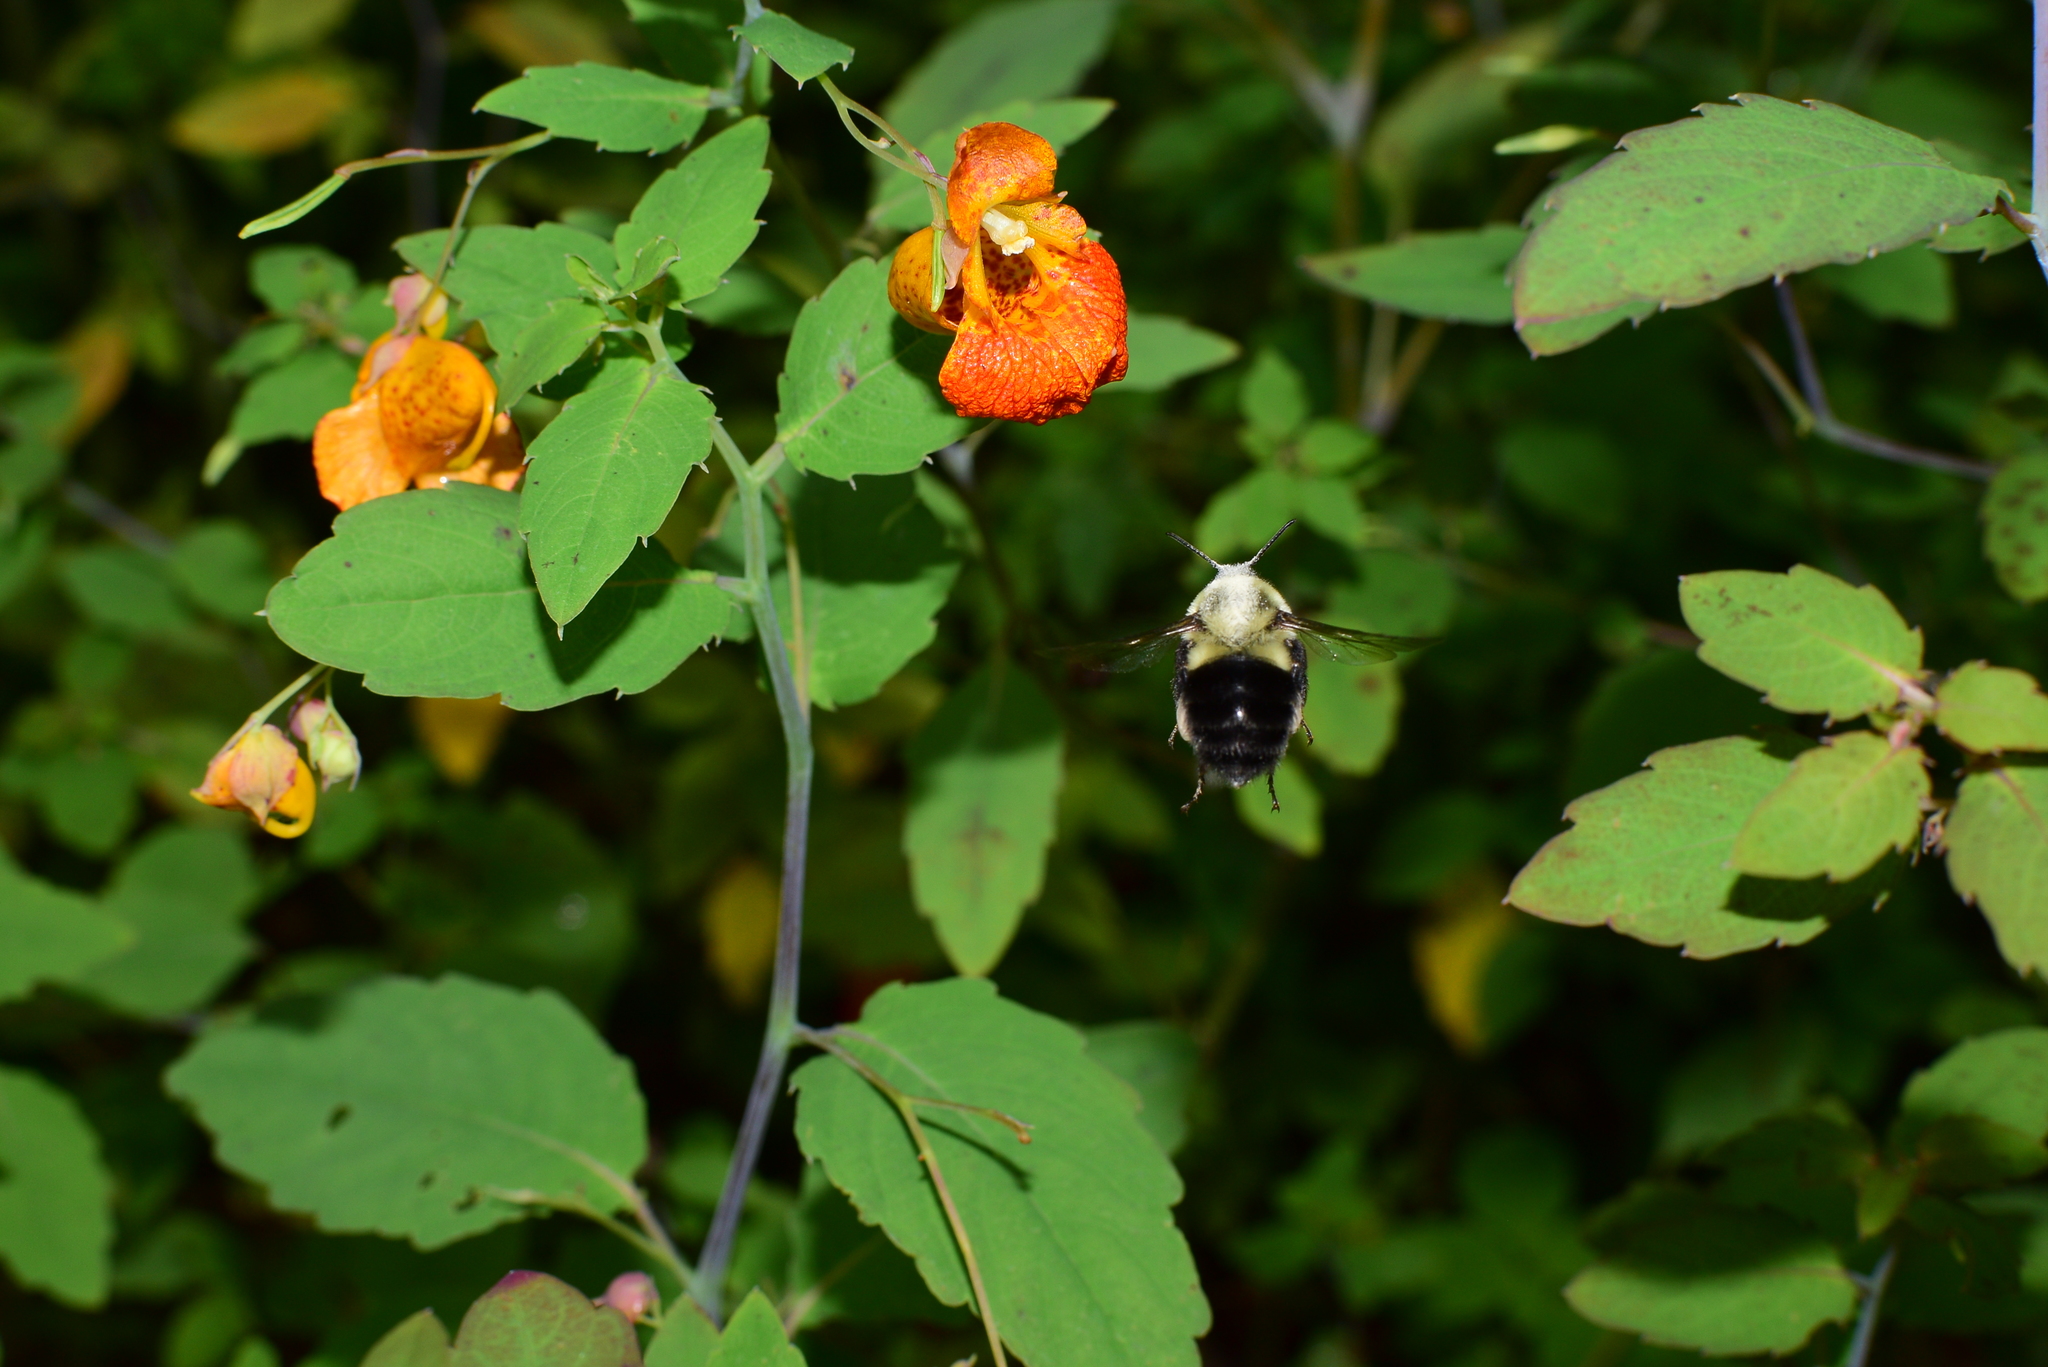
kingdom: Animalia
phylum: Arthropoda
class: Insecta
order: Hymenoptera
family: Apidae
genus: Bombus
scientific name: Bombus impatiens
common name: Common eastern bumble bee
